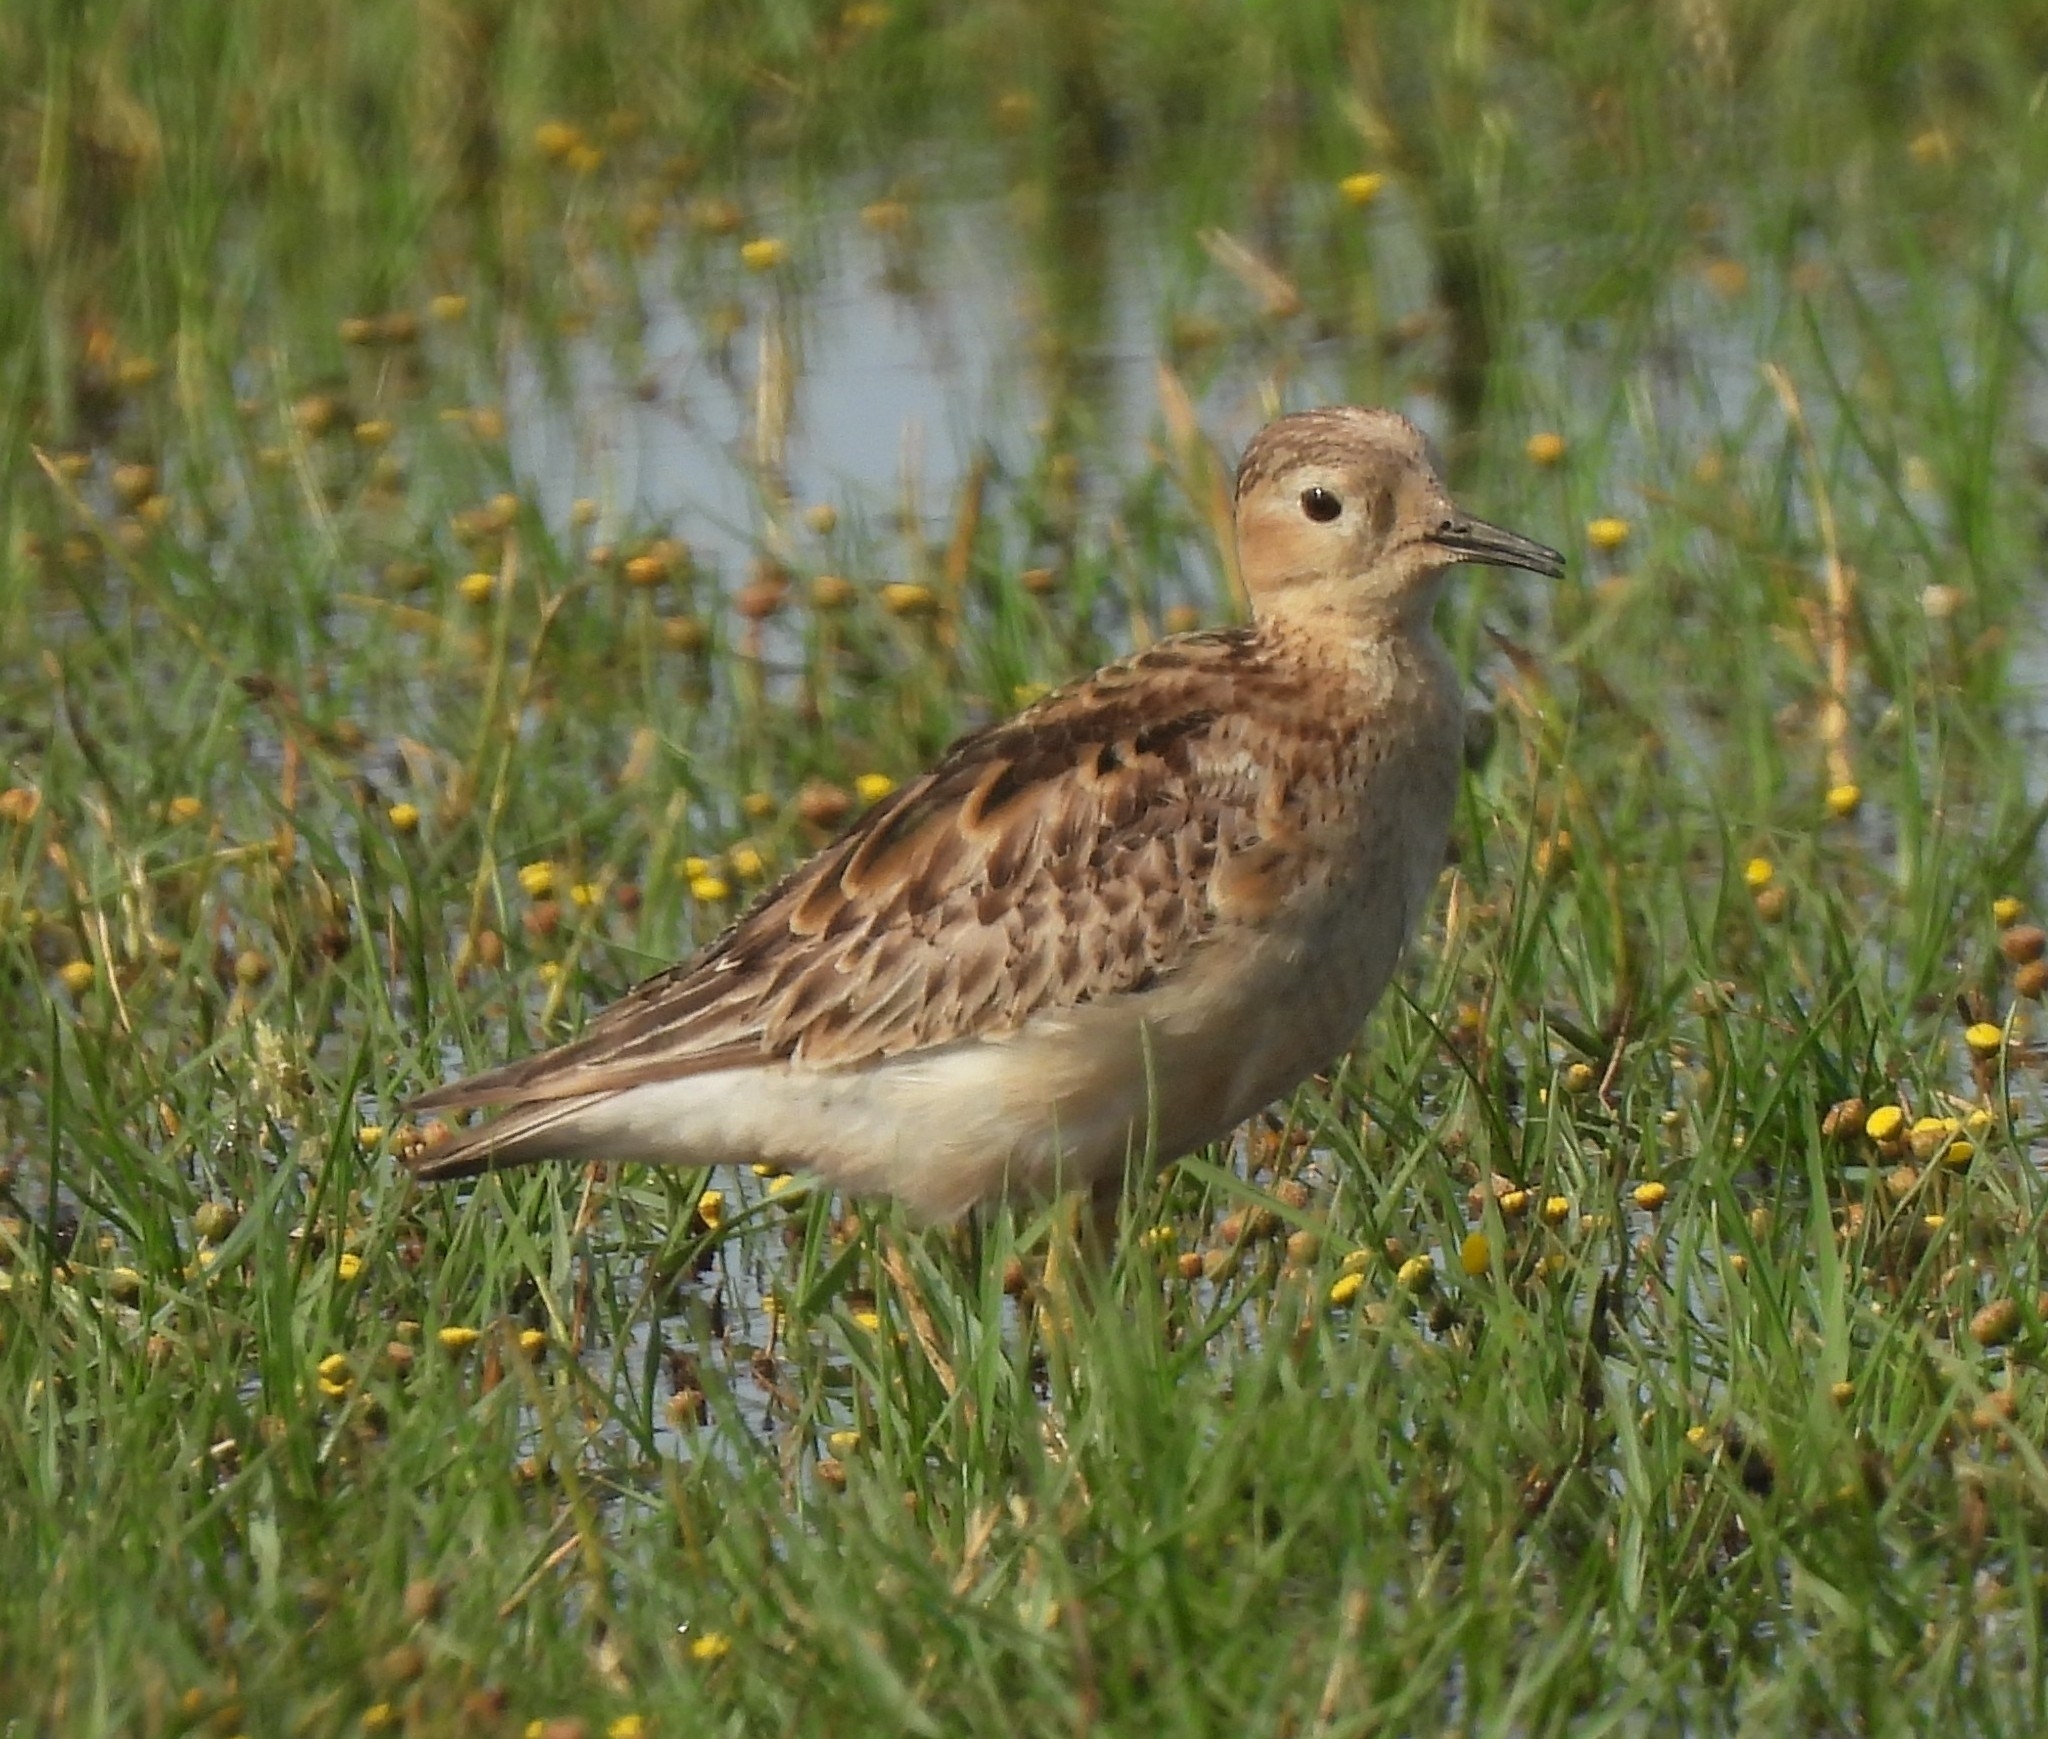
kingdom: Animalia
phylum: Chordata
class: Aves
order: Charadriiformes
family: Scolopacidae
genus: Calidris
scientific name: Calidris subruficollis
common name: Buff-breasted sandpiper
